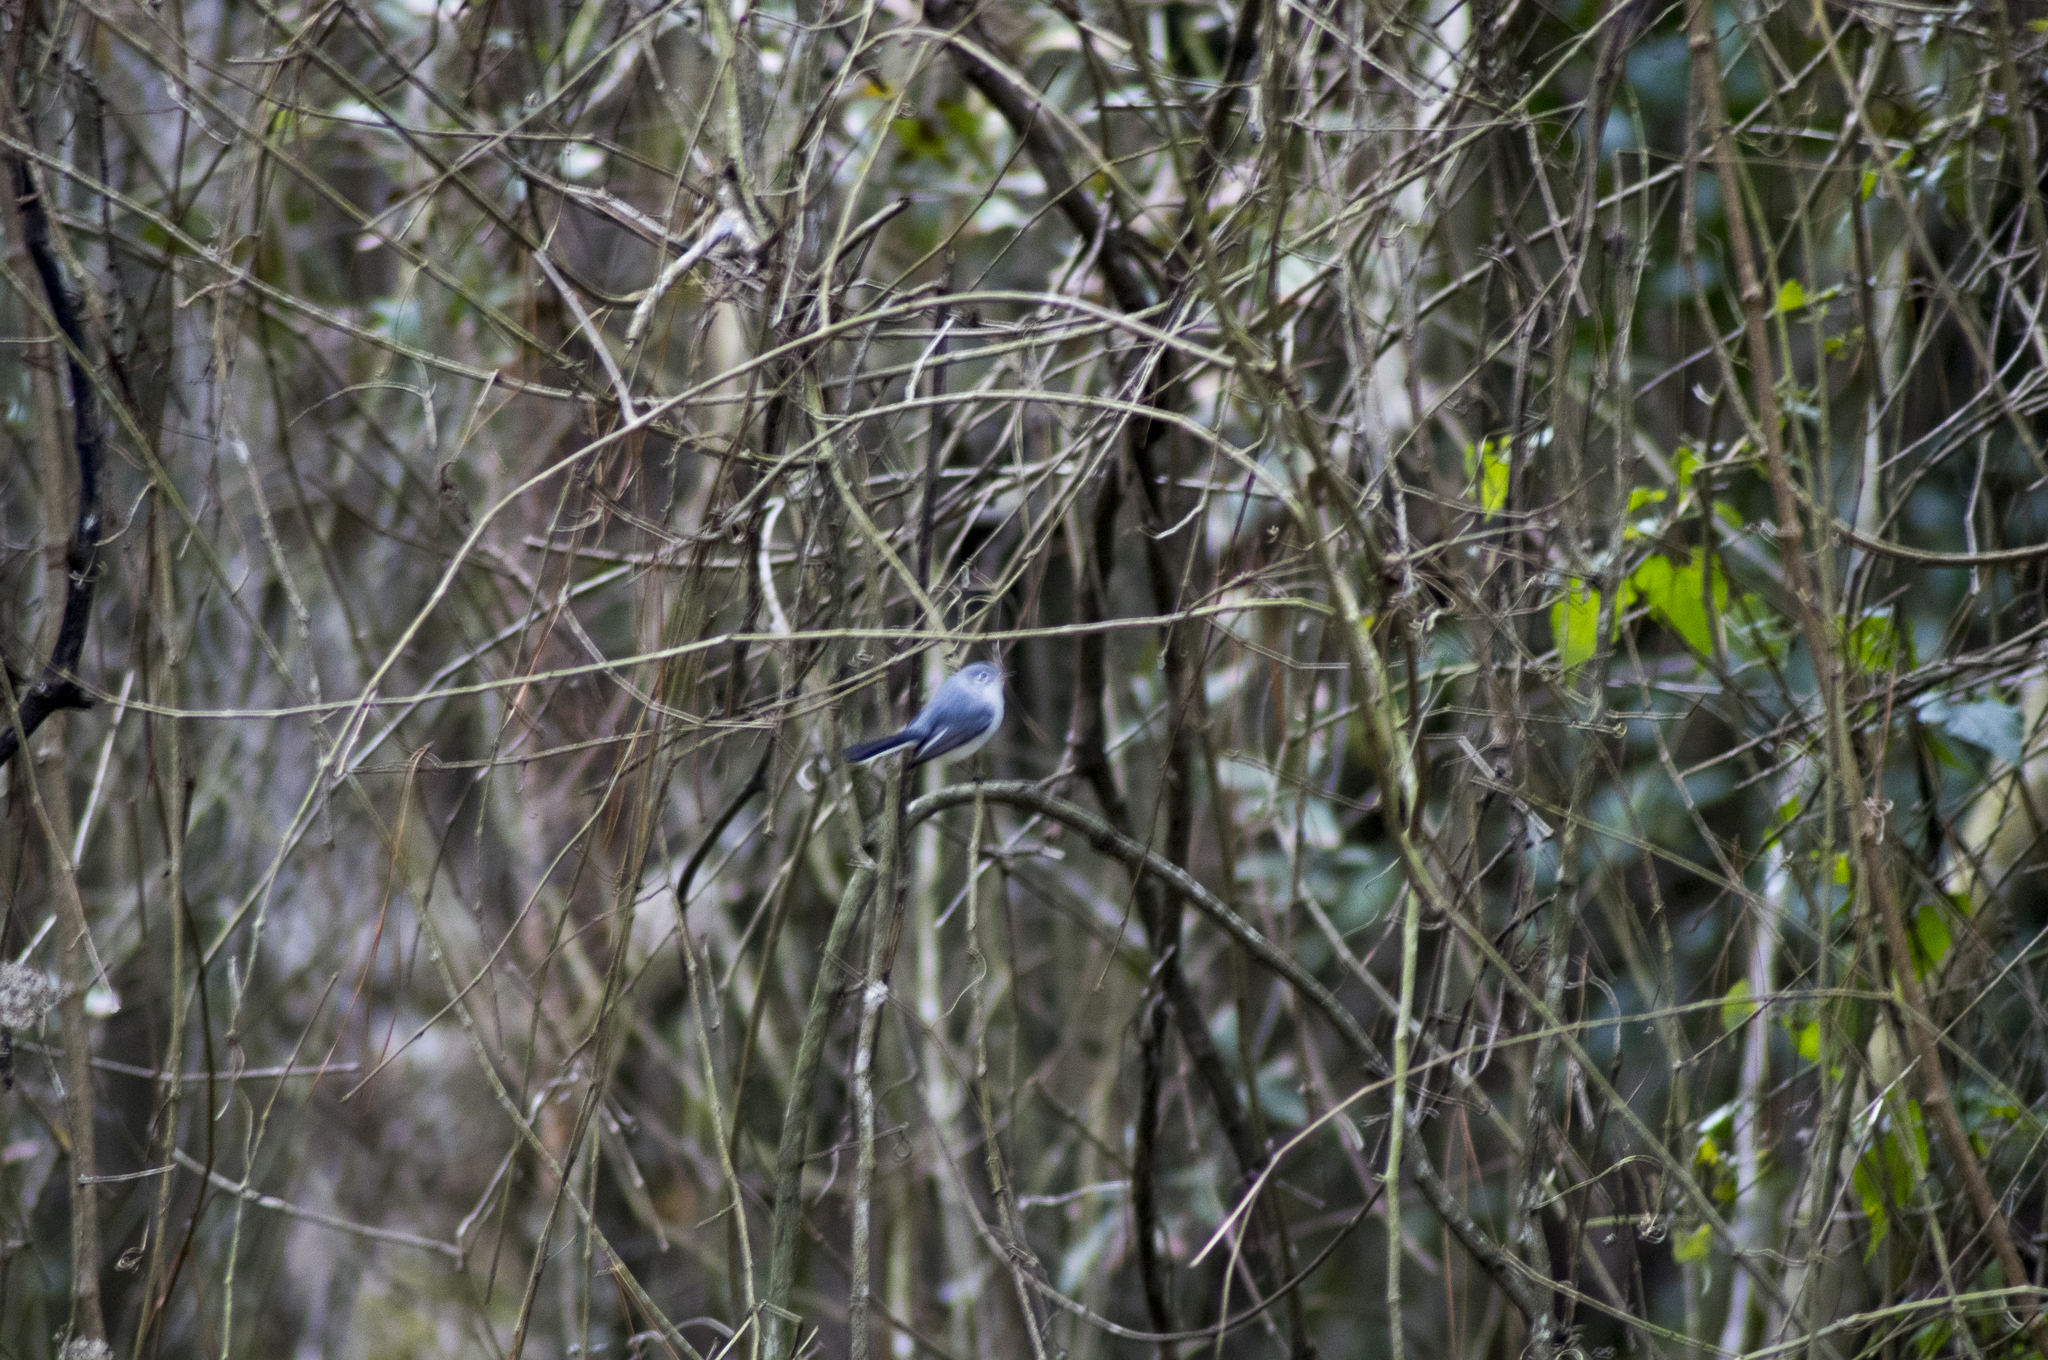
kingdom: Animalia
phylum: Chordata
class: Aves
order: Passeriformes
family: Polioptilidae
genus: Polioptila
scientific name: Polioptila caerulea
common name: Blue-gray gnatcatcher
